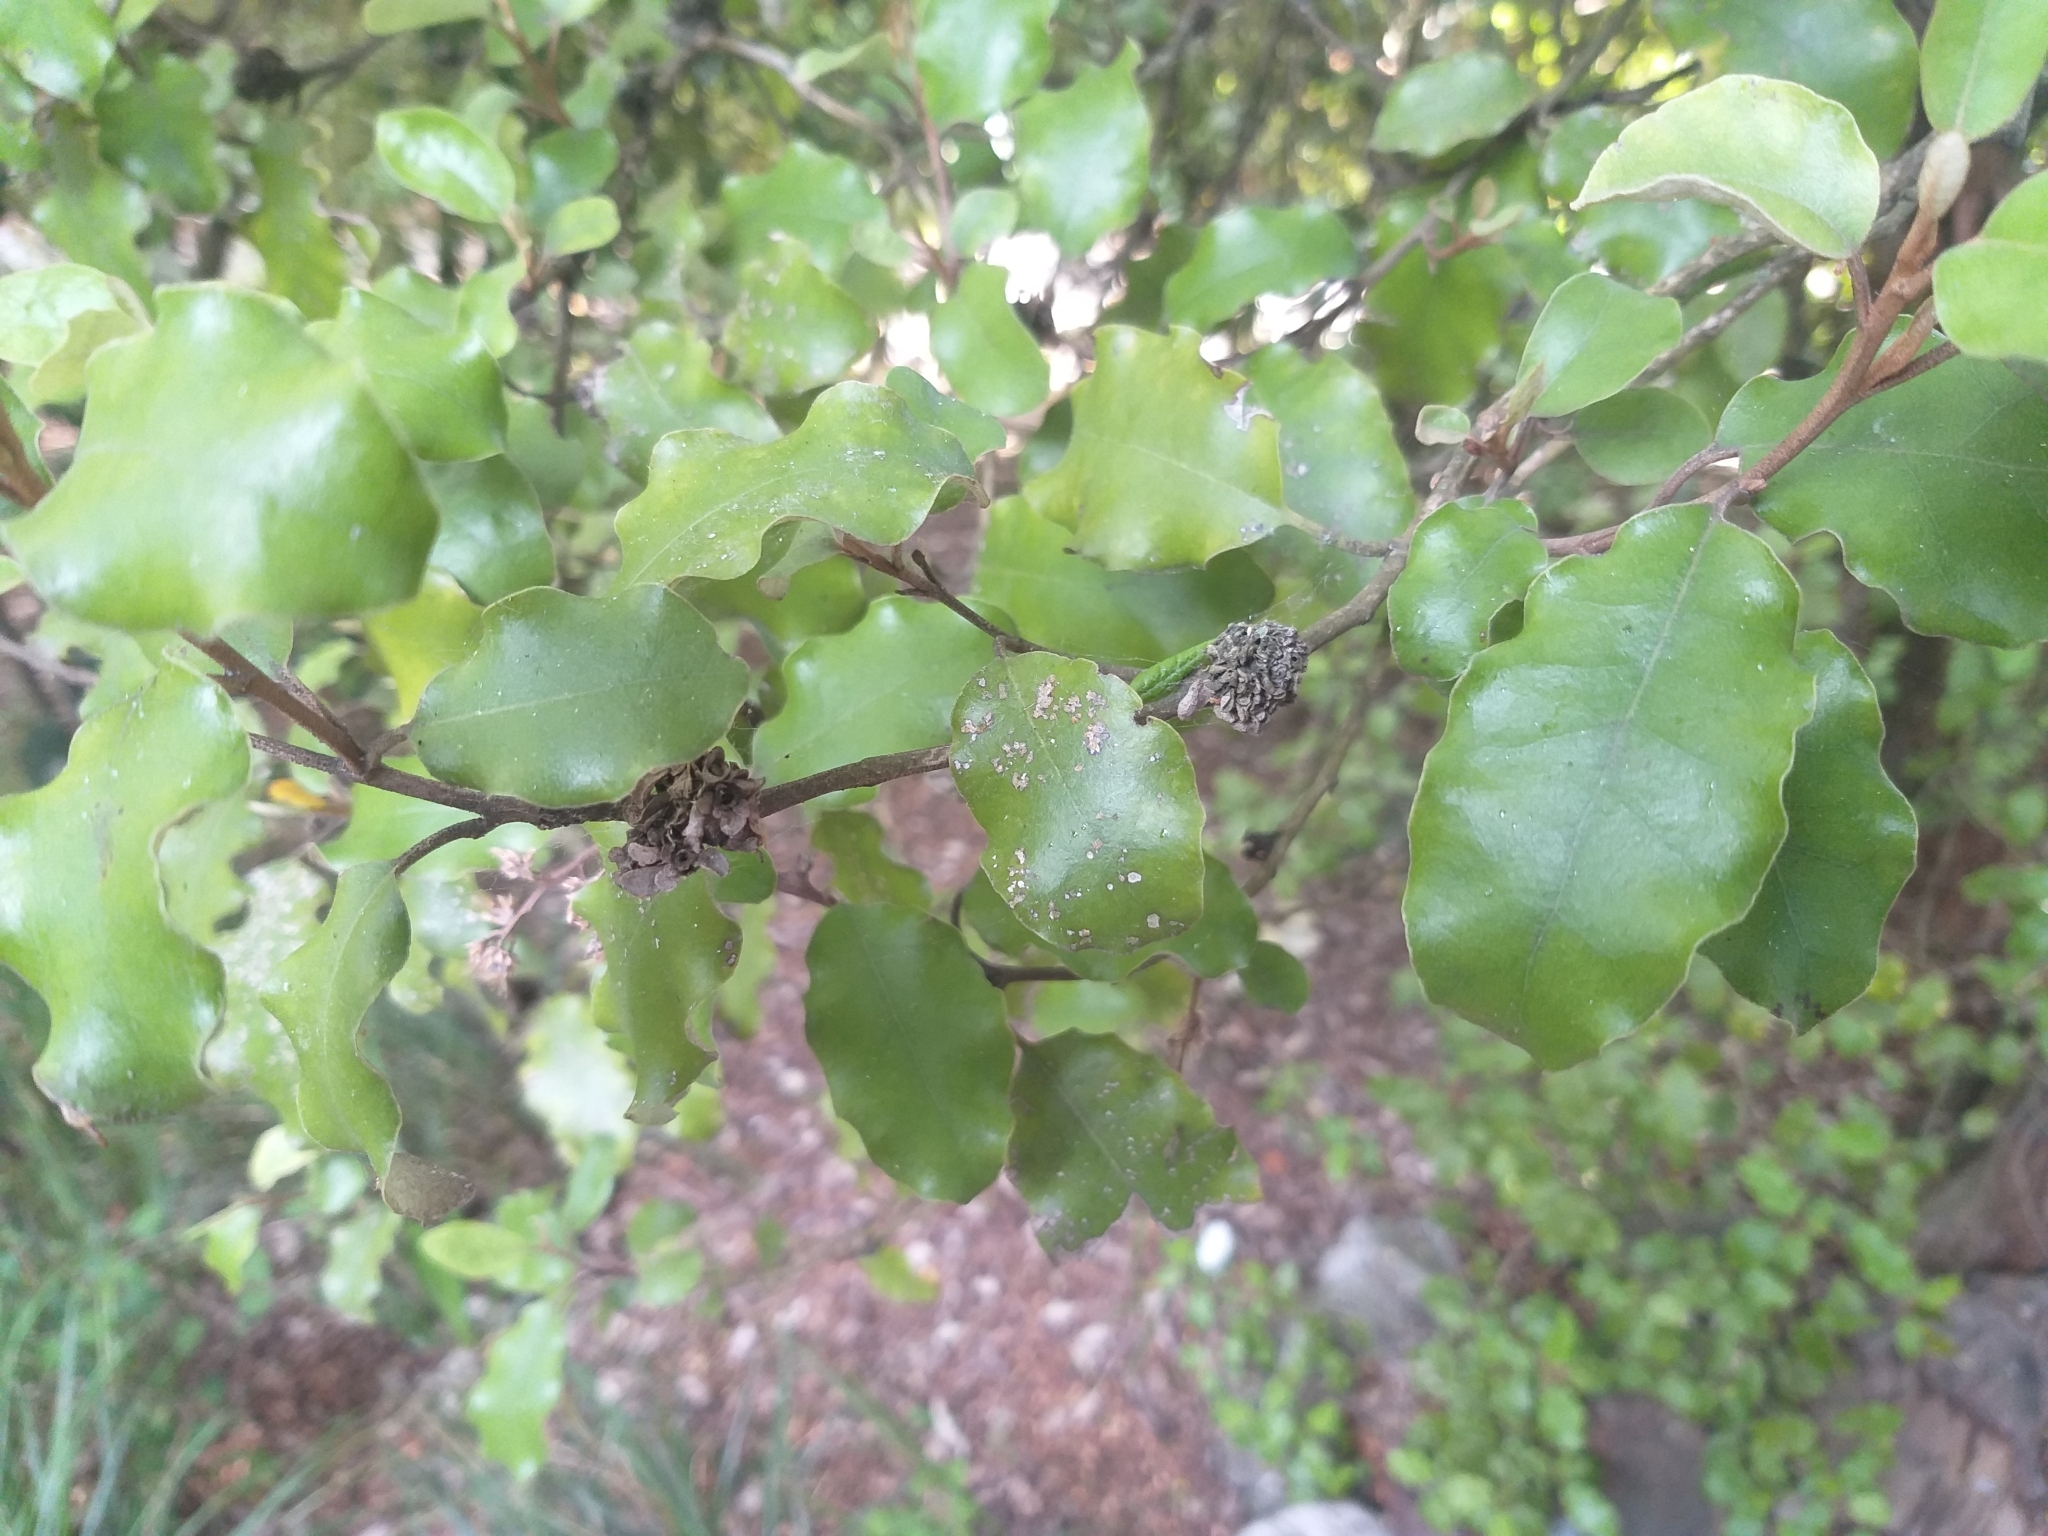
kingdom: Plantae
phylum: Tracheophyta
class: Magnoliopsida
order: Asterales
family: Asteraceae
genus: Olearia
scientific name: Olearia paniculata
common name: Akiraho
